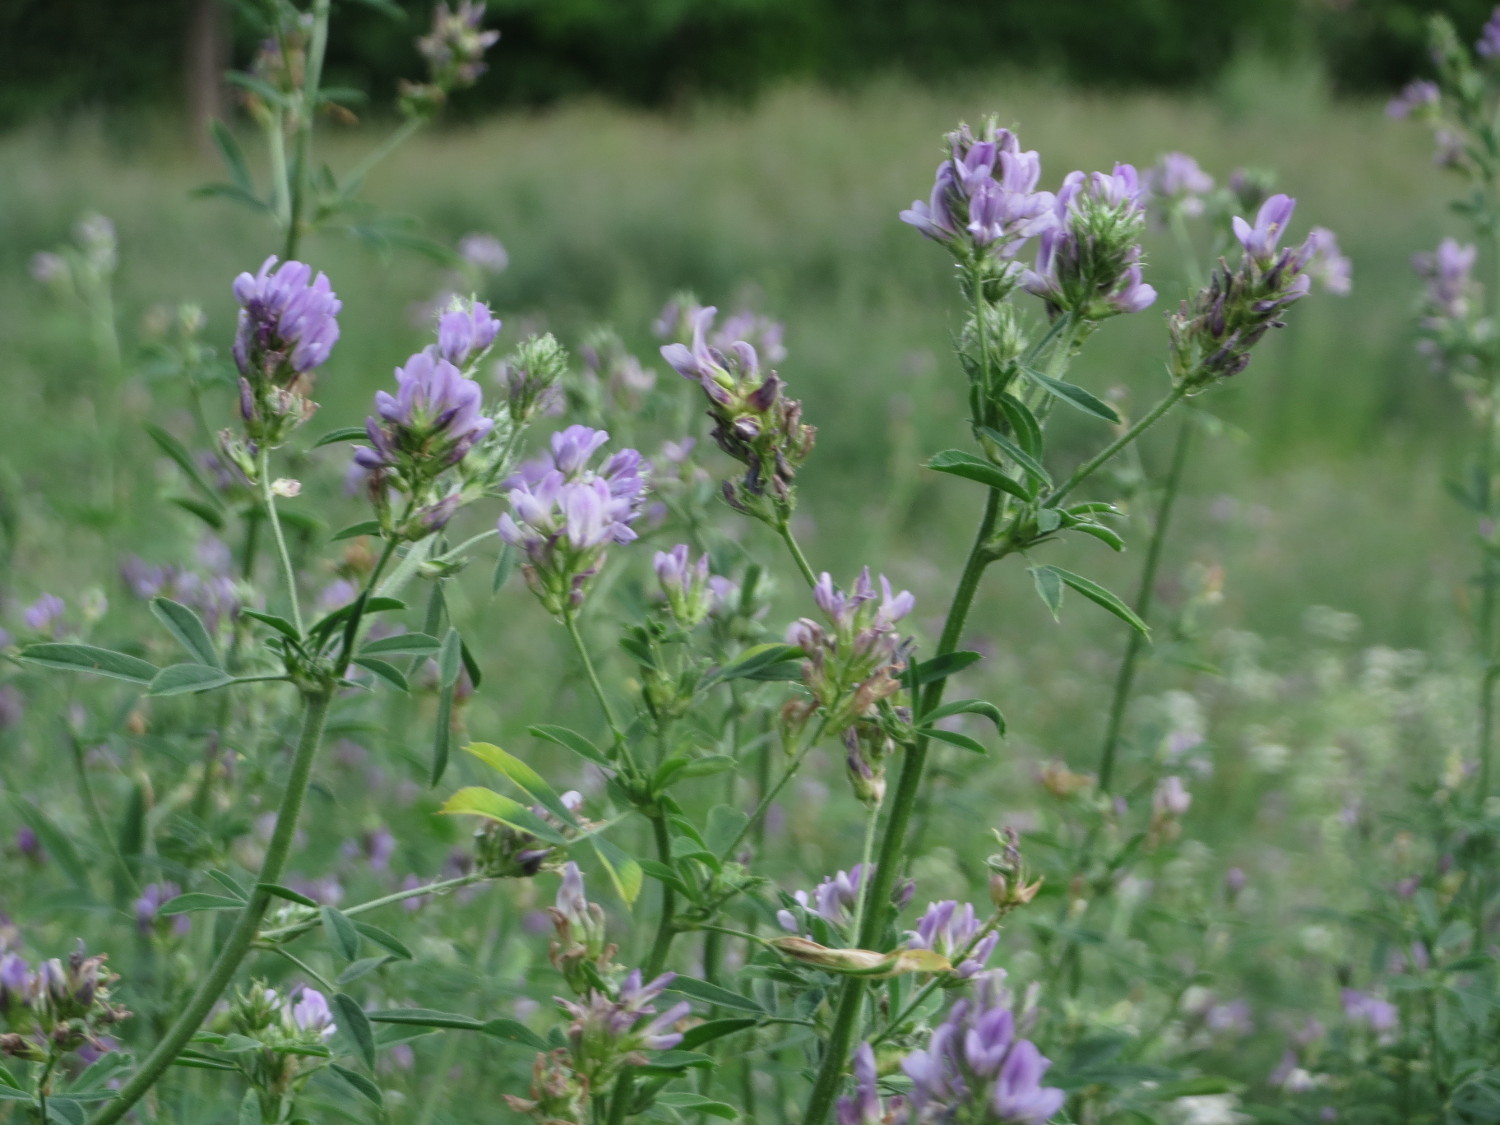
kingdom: Plantae
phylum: Tracheophyta
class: Magnoliopsida
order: Fabales
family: Fabaceae
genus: Medicago
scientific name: Medicago
